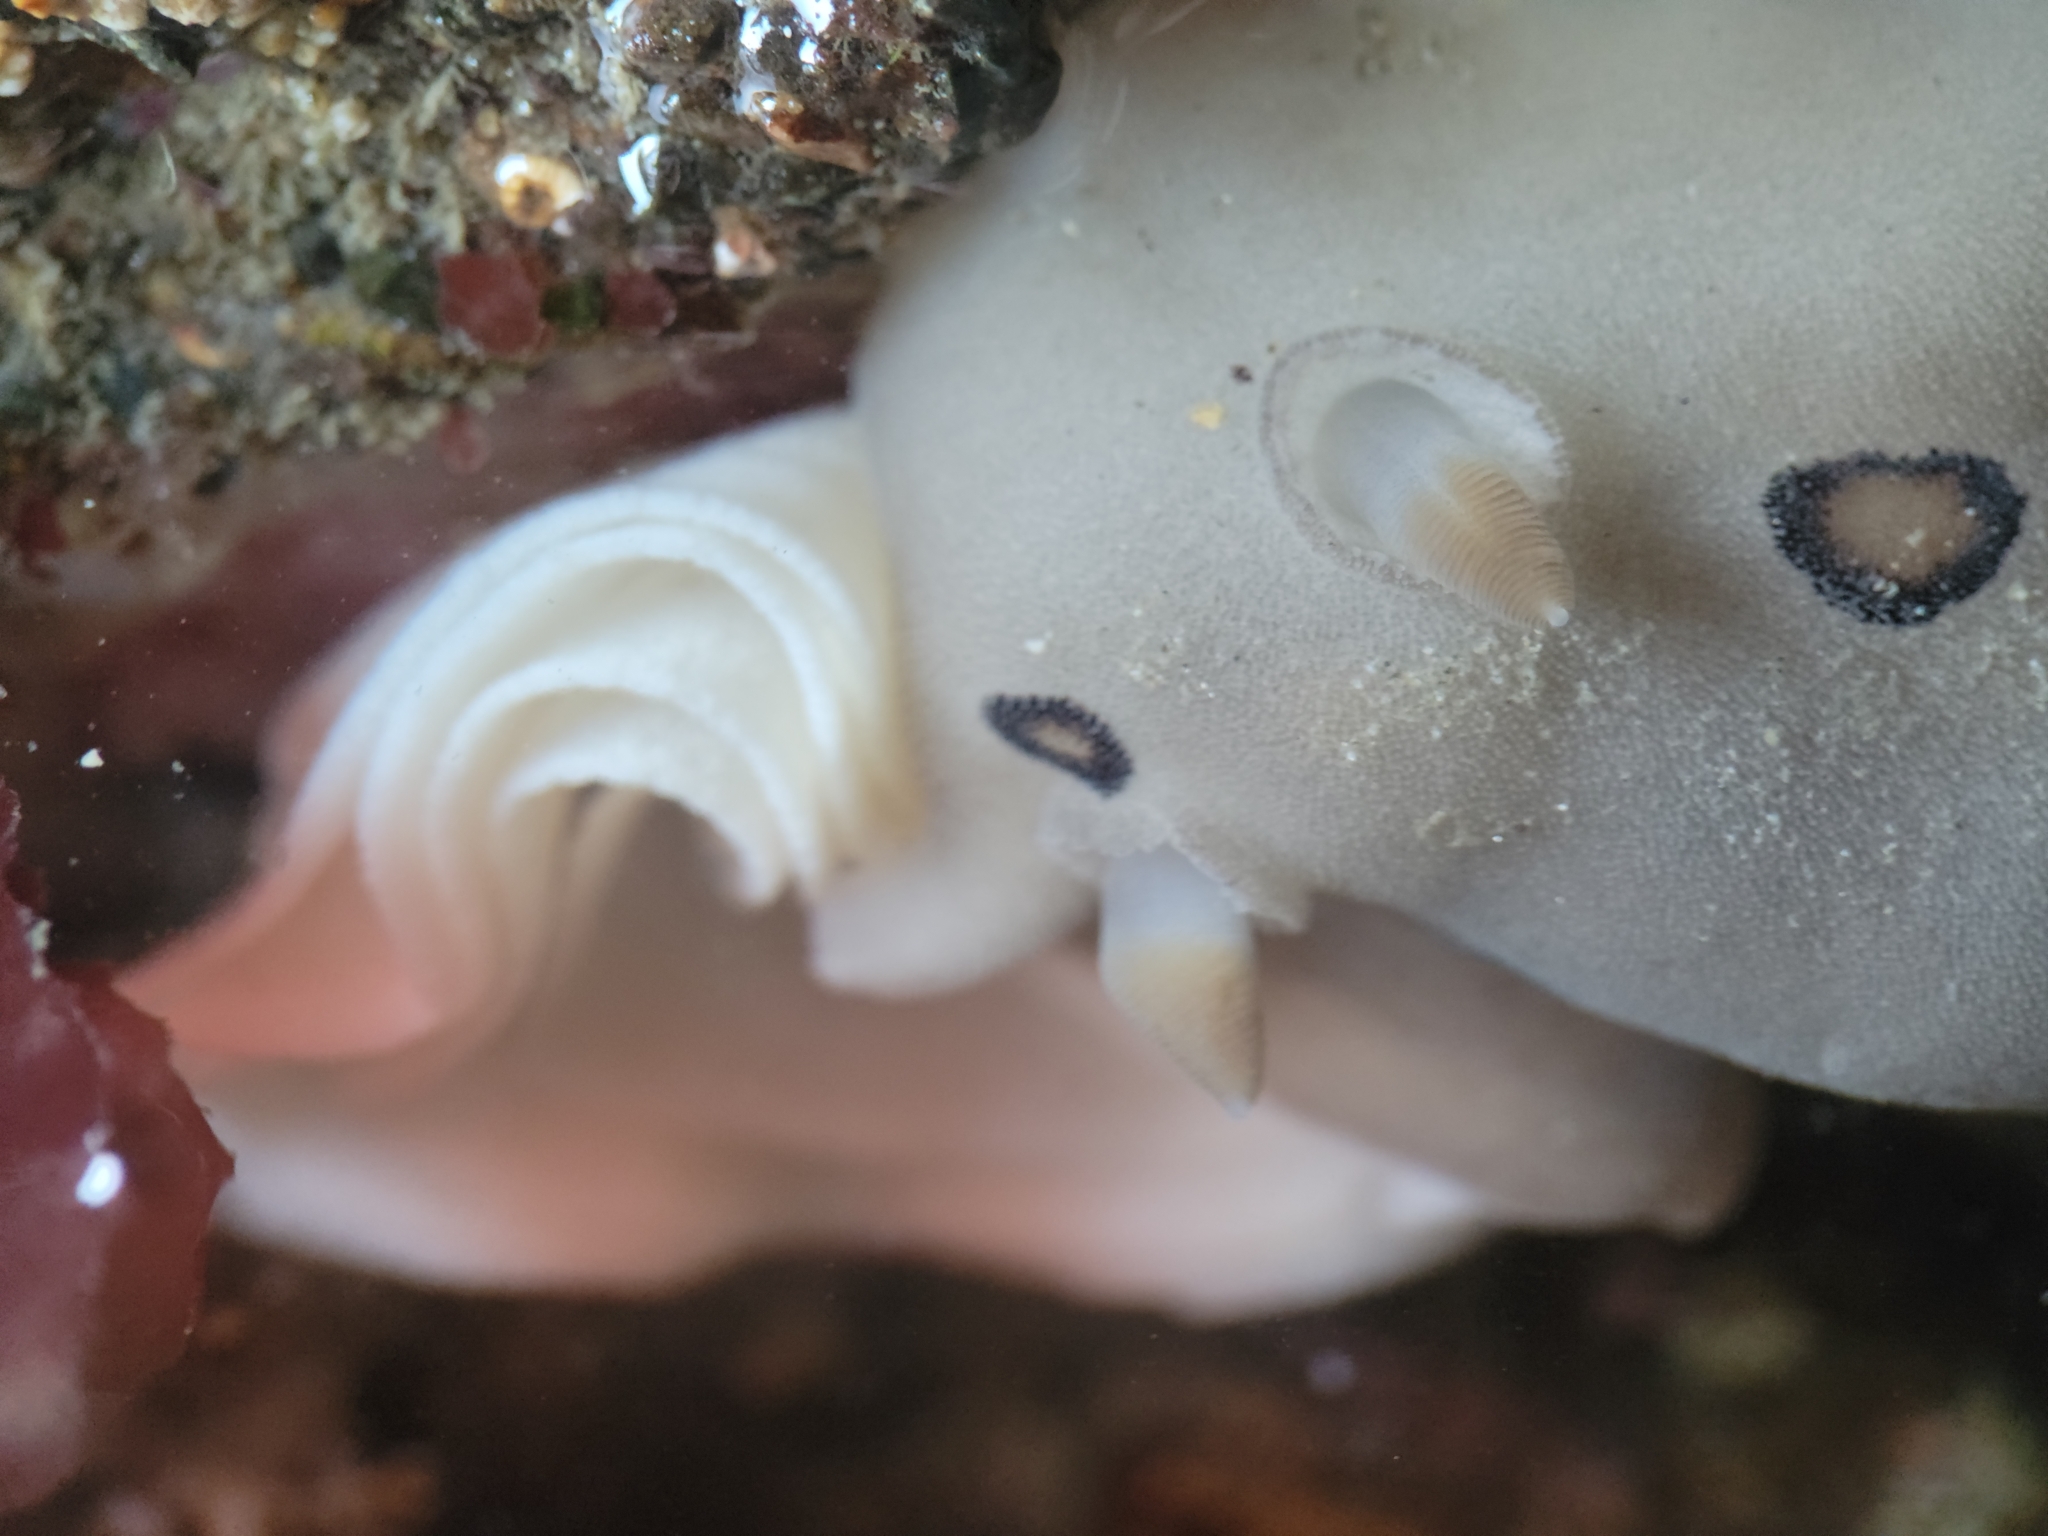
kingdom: Animalia
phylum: Mollusca
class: Gastropoda
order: Nudibranchia
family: Discodorididae
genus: Diaulula
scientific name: Diaulula sandiegensis
